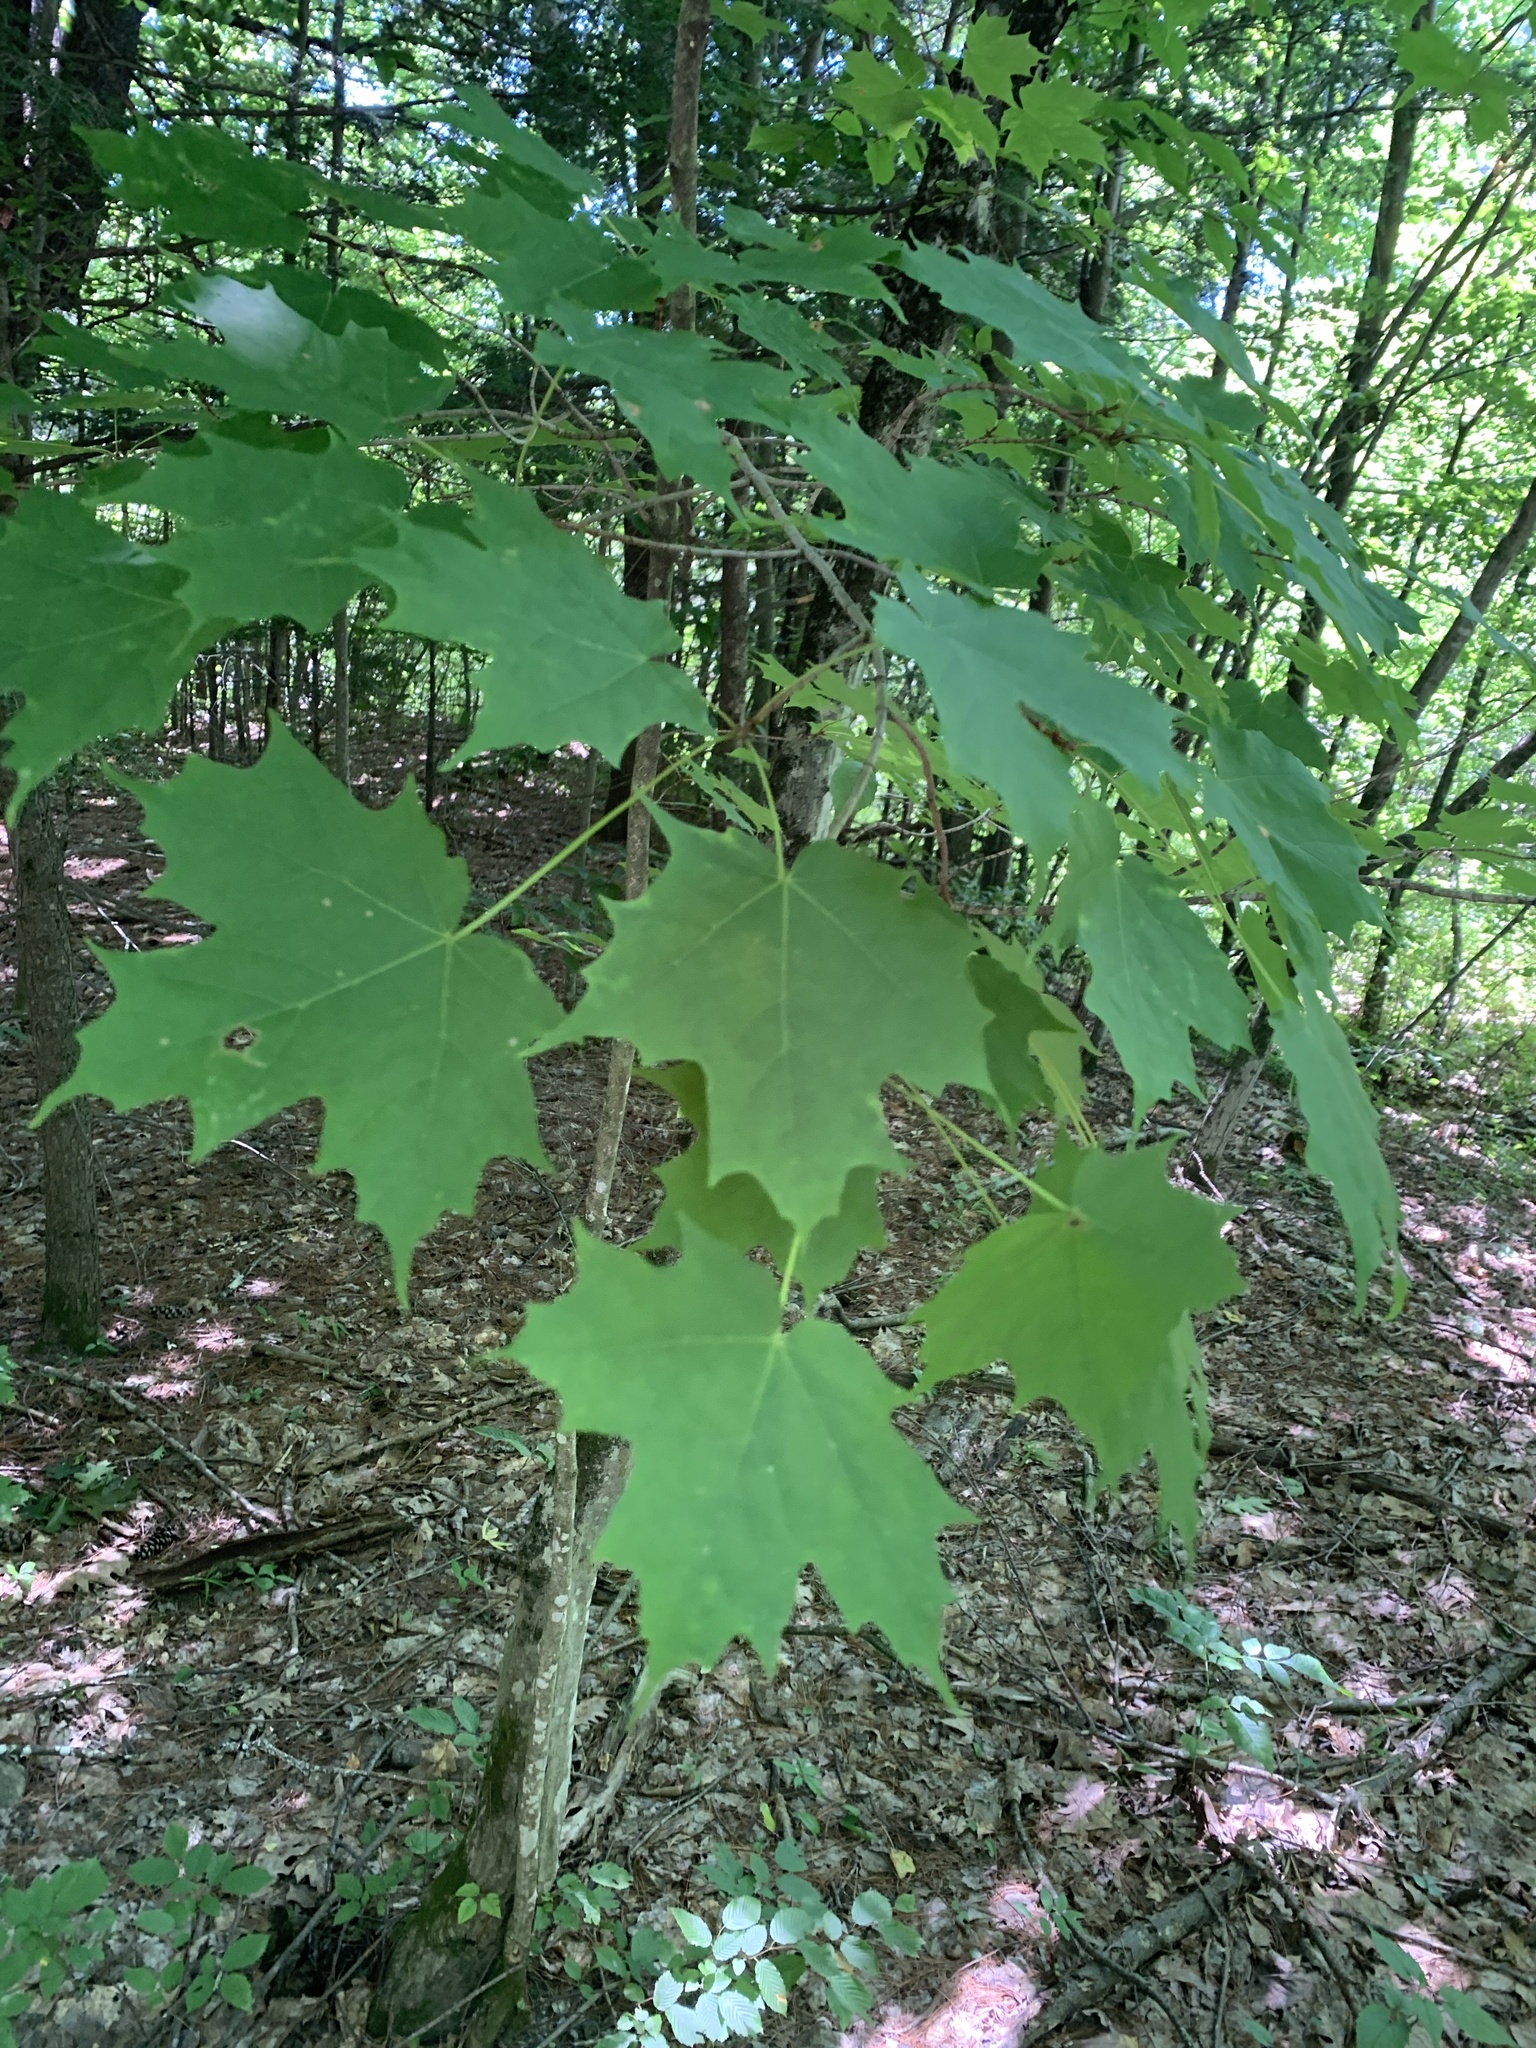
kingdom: Plantae
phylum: Tracheophyta
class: Magnoliopsida
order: Sapindales
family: Sapindaceae
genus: Acer
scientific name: Acer saccharum
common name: Sugar maple
